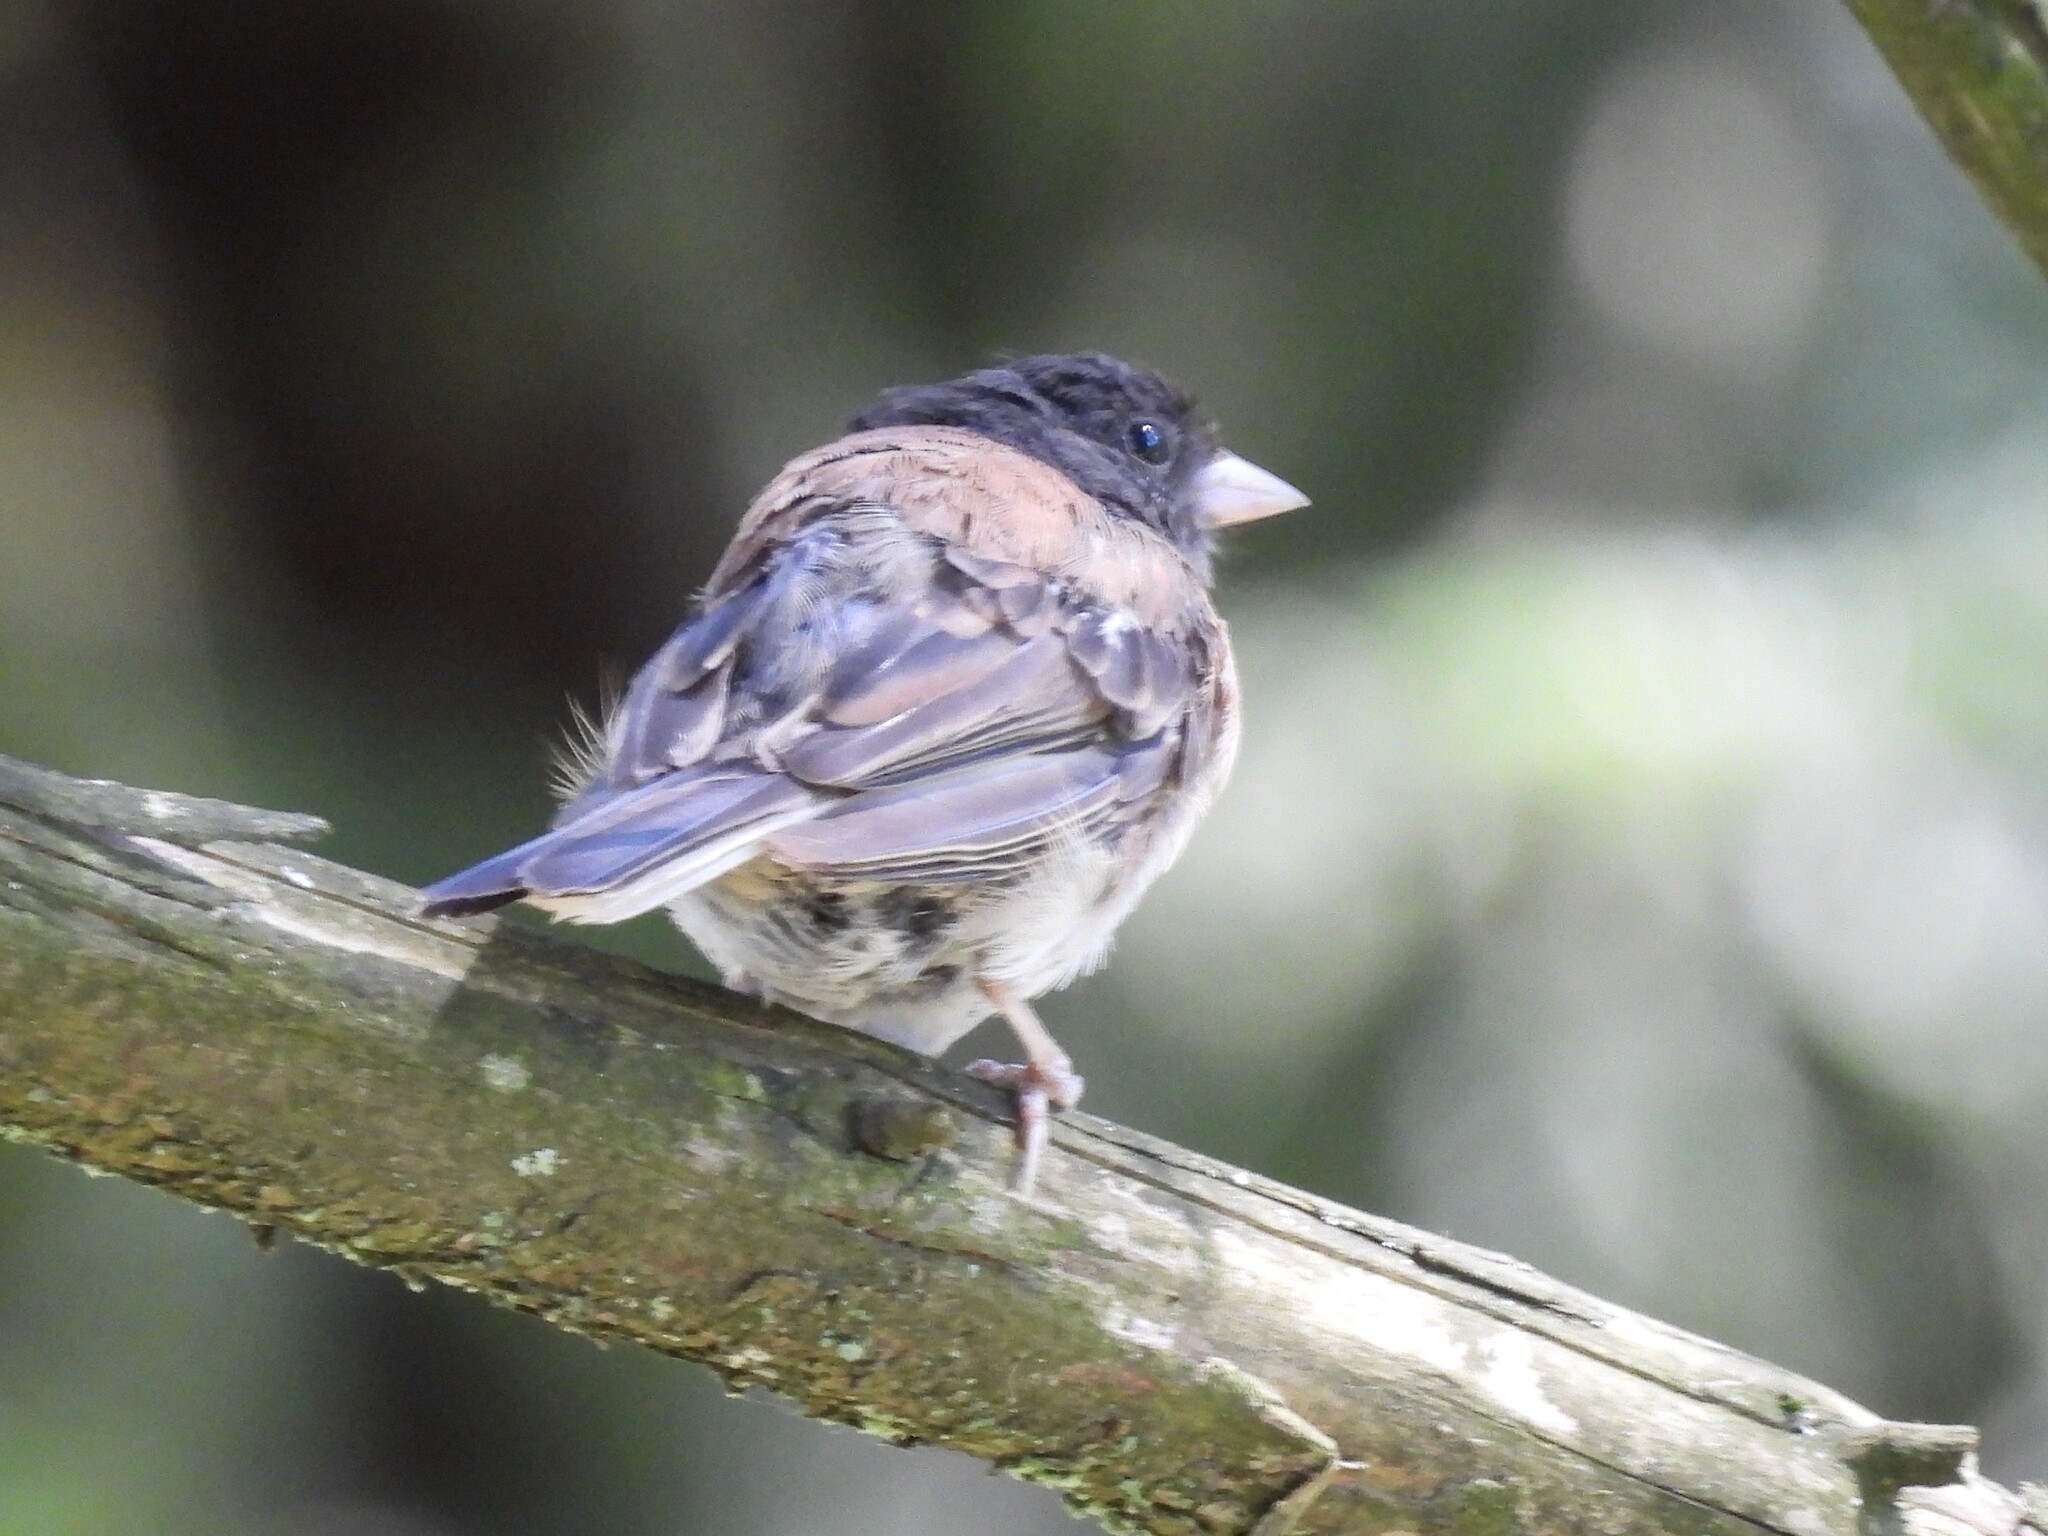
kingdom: Animalia
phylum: Chordata
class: Aves
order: Passeriformes
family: Passerellidae
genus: Junco
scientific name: Junco hyemalis
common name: Dark-eyed junco
